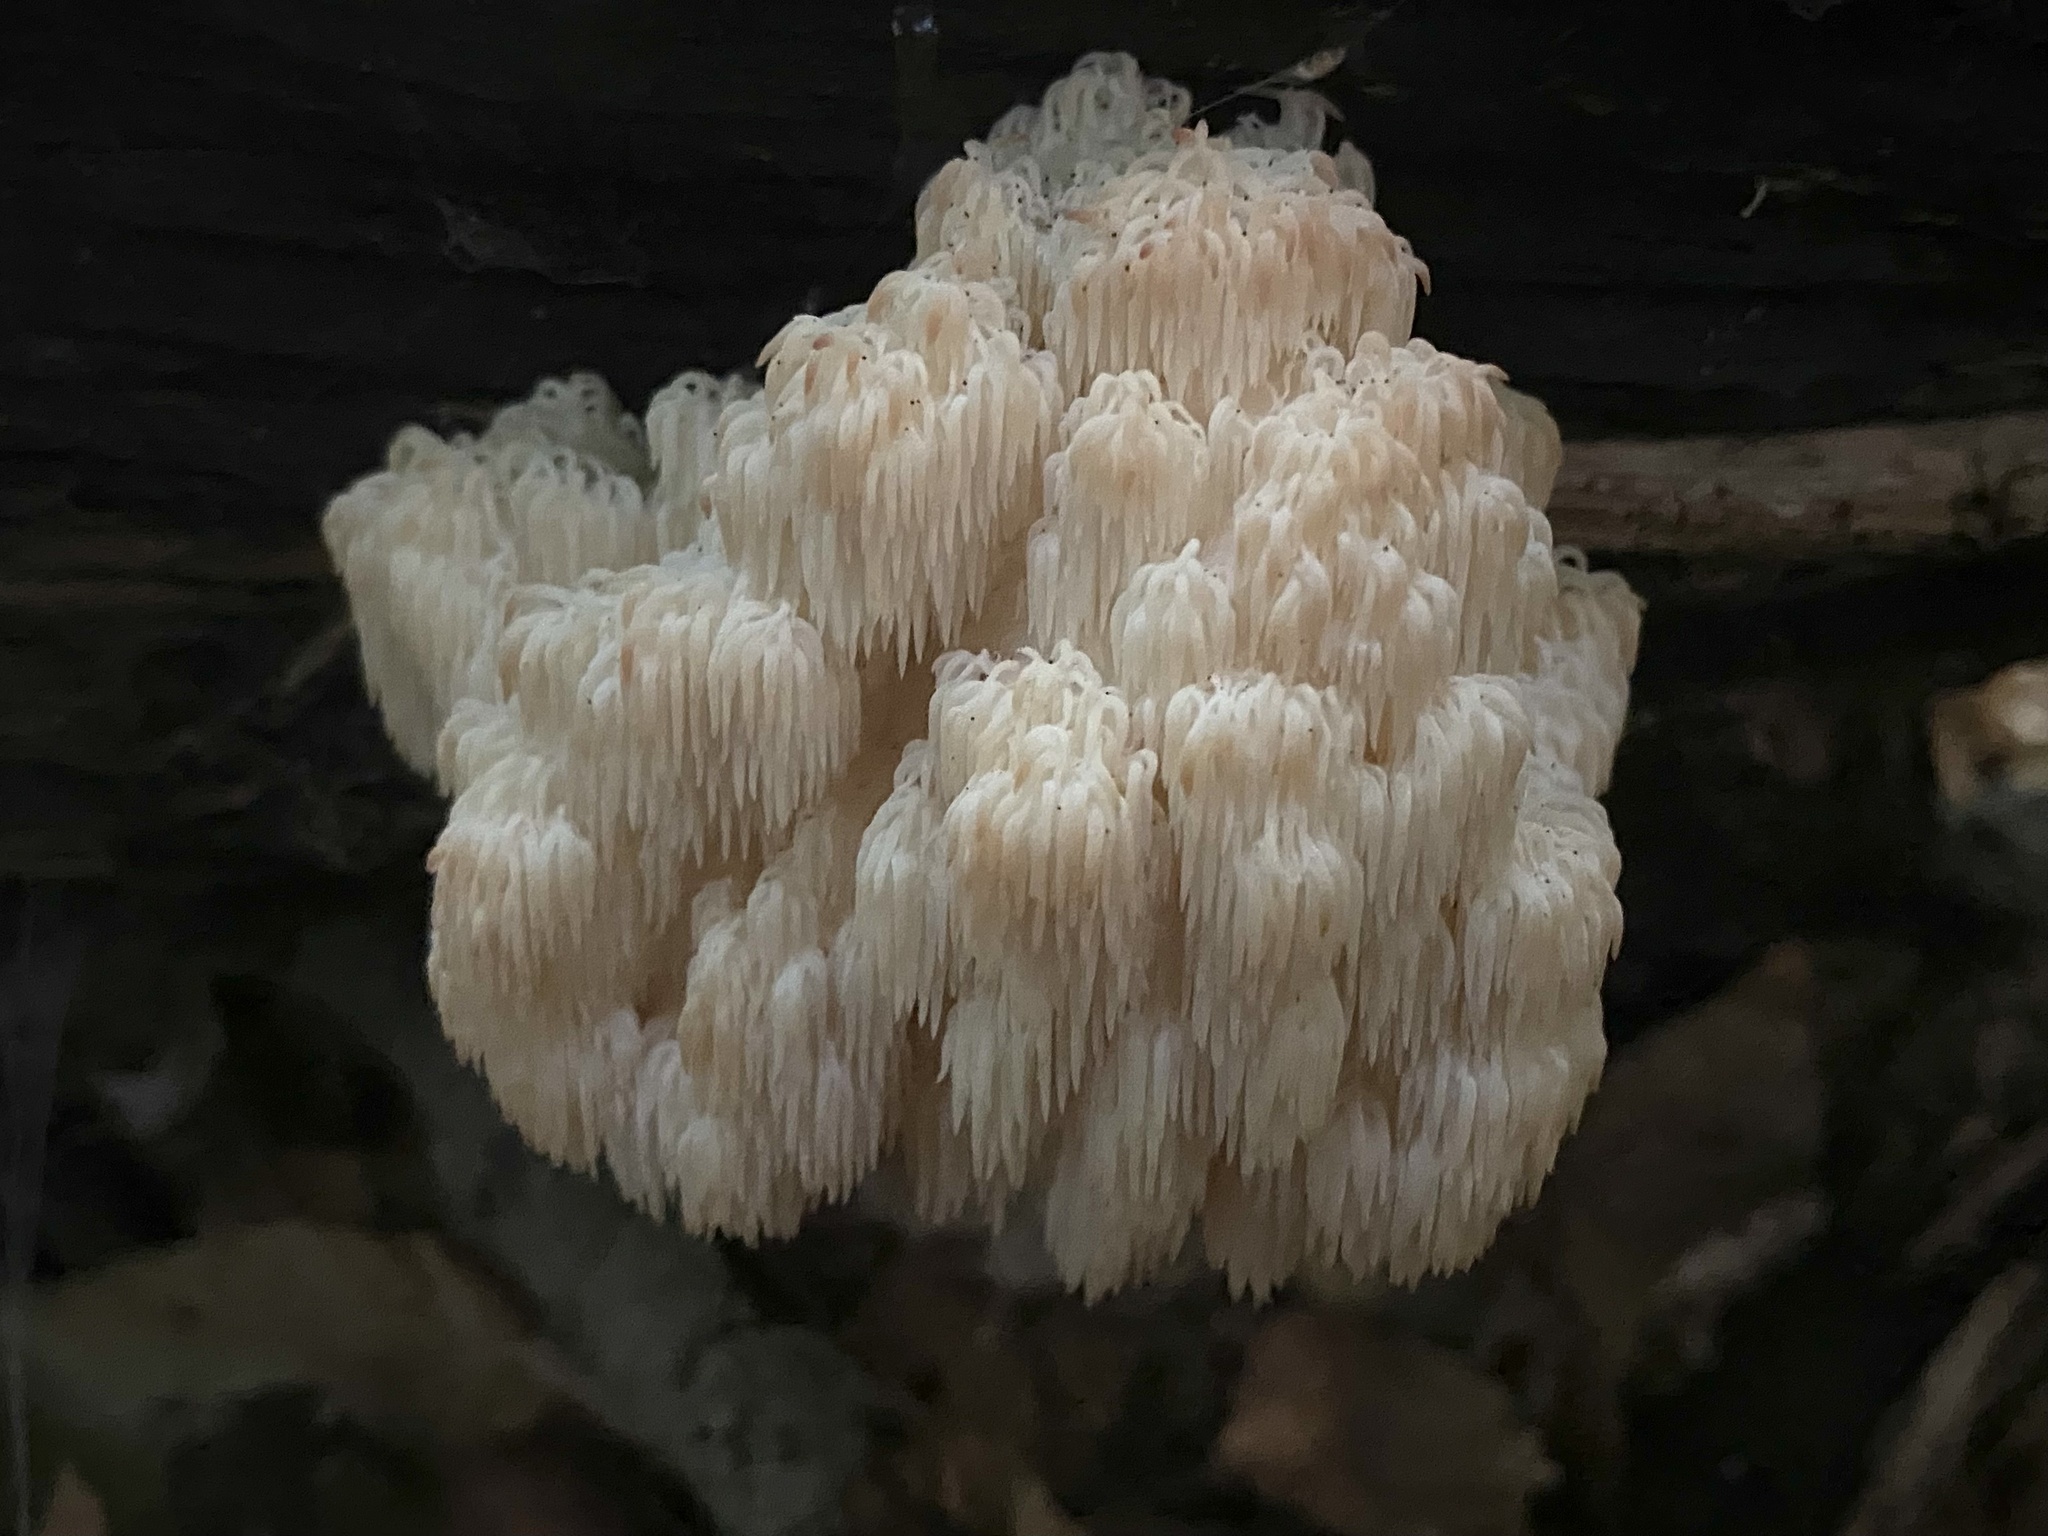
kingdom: Fungi
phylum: Basidiomycota
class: Agaricomycetes
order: Russulales
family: Hericiaceae
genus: Hericium
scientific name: Hericium americanum
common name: Bear's head tooth
